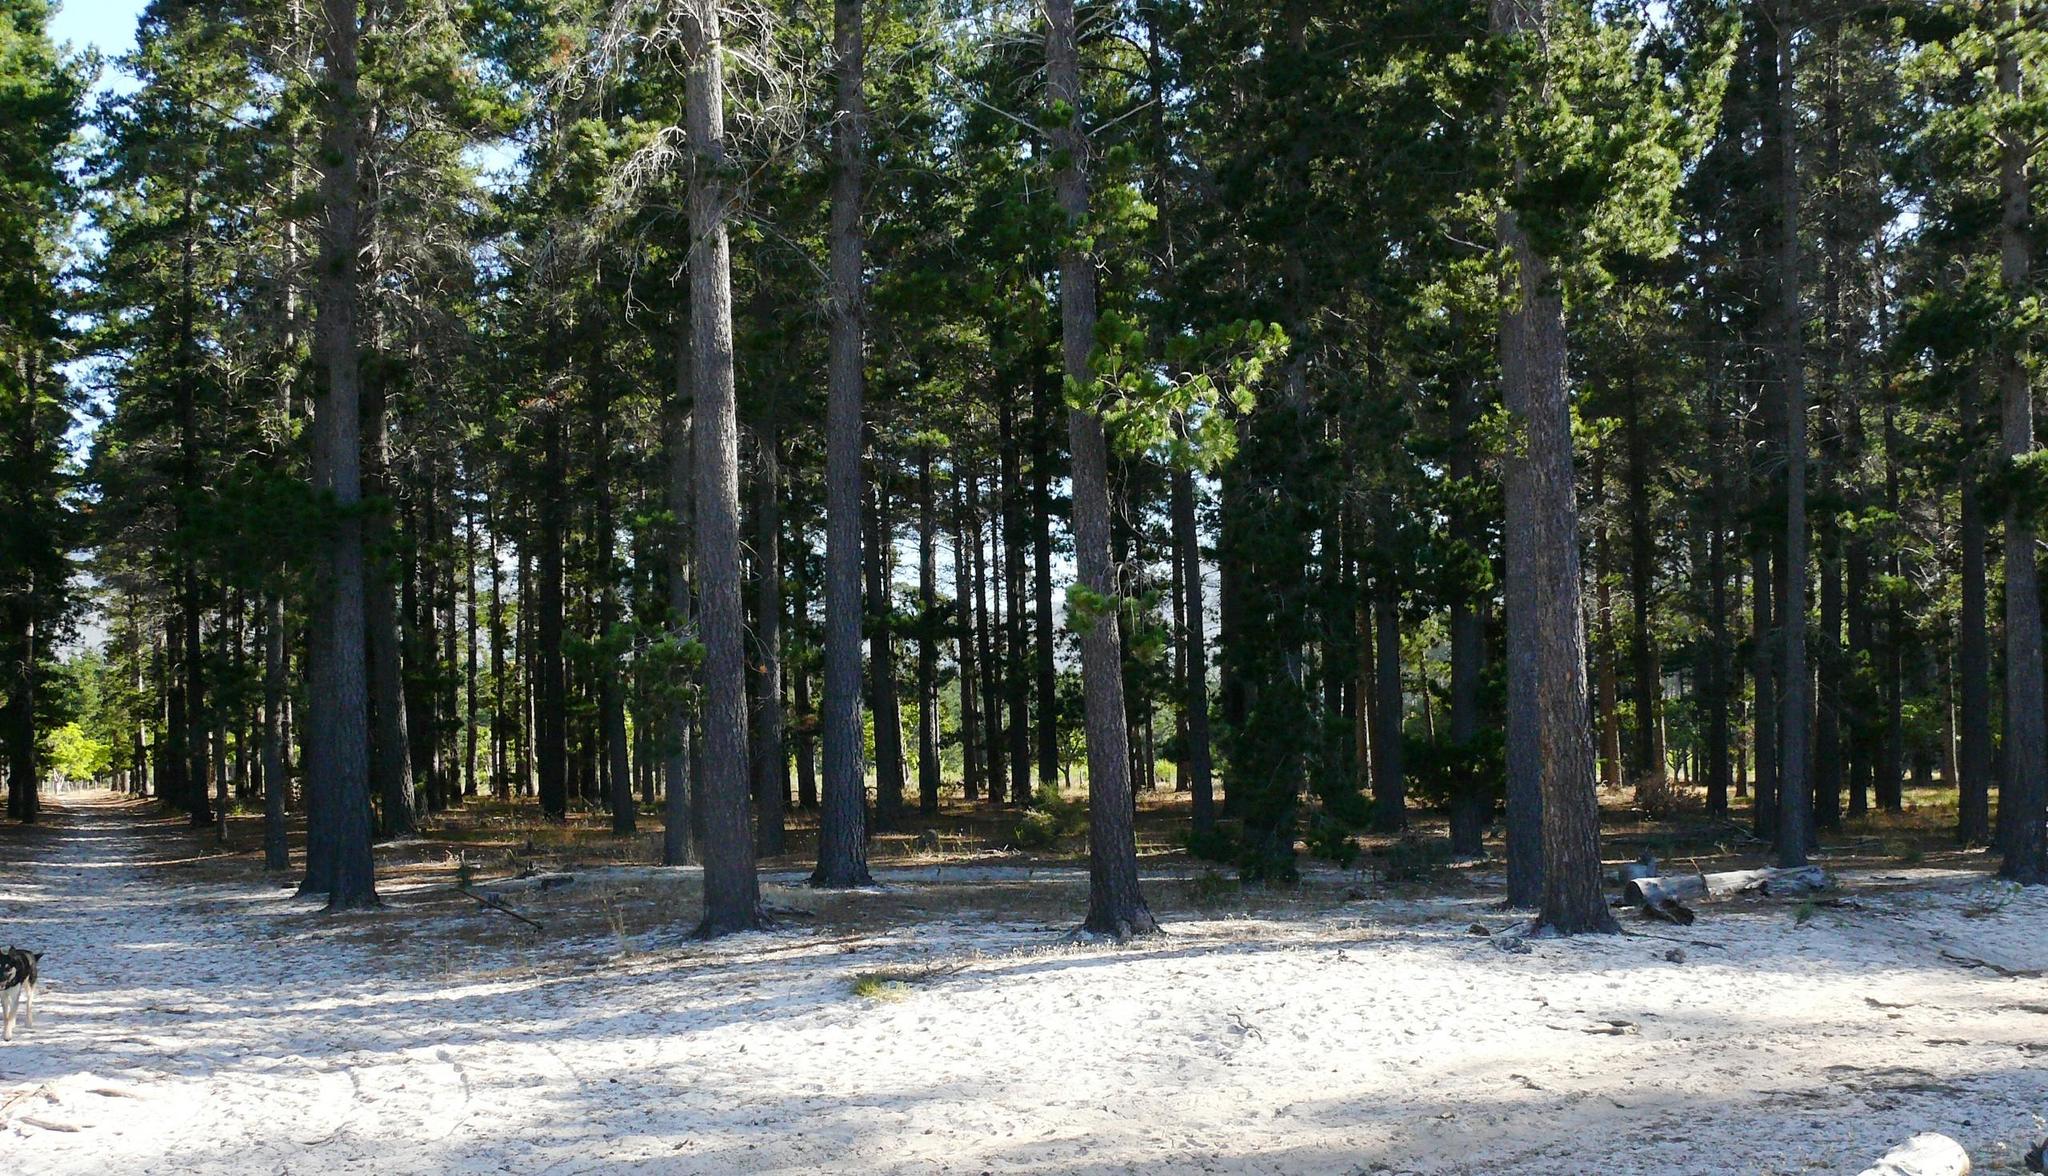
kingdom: Plantae
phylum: Tracheophyta
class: Pinopsida
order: Pinales
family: Pinaceae
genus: Pinus
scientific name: Pinus radiata
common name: Monterey pine
